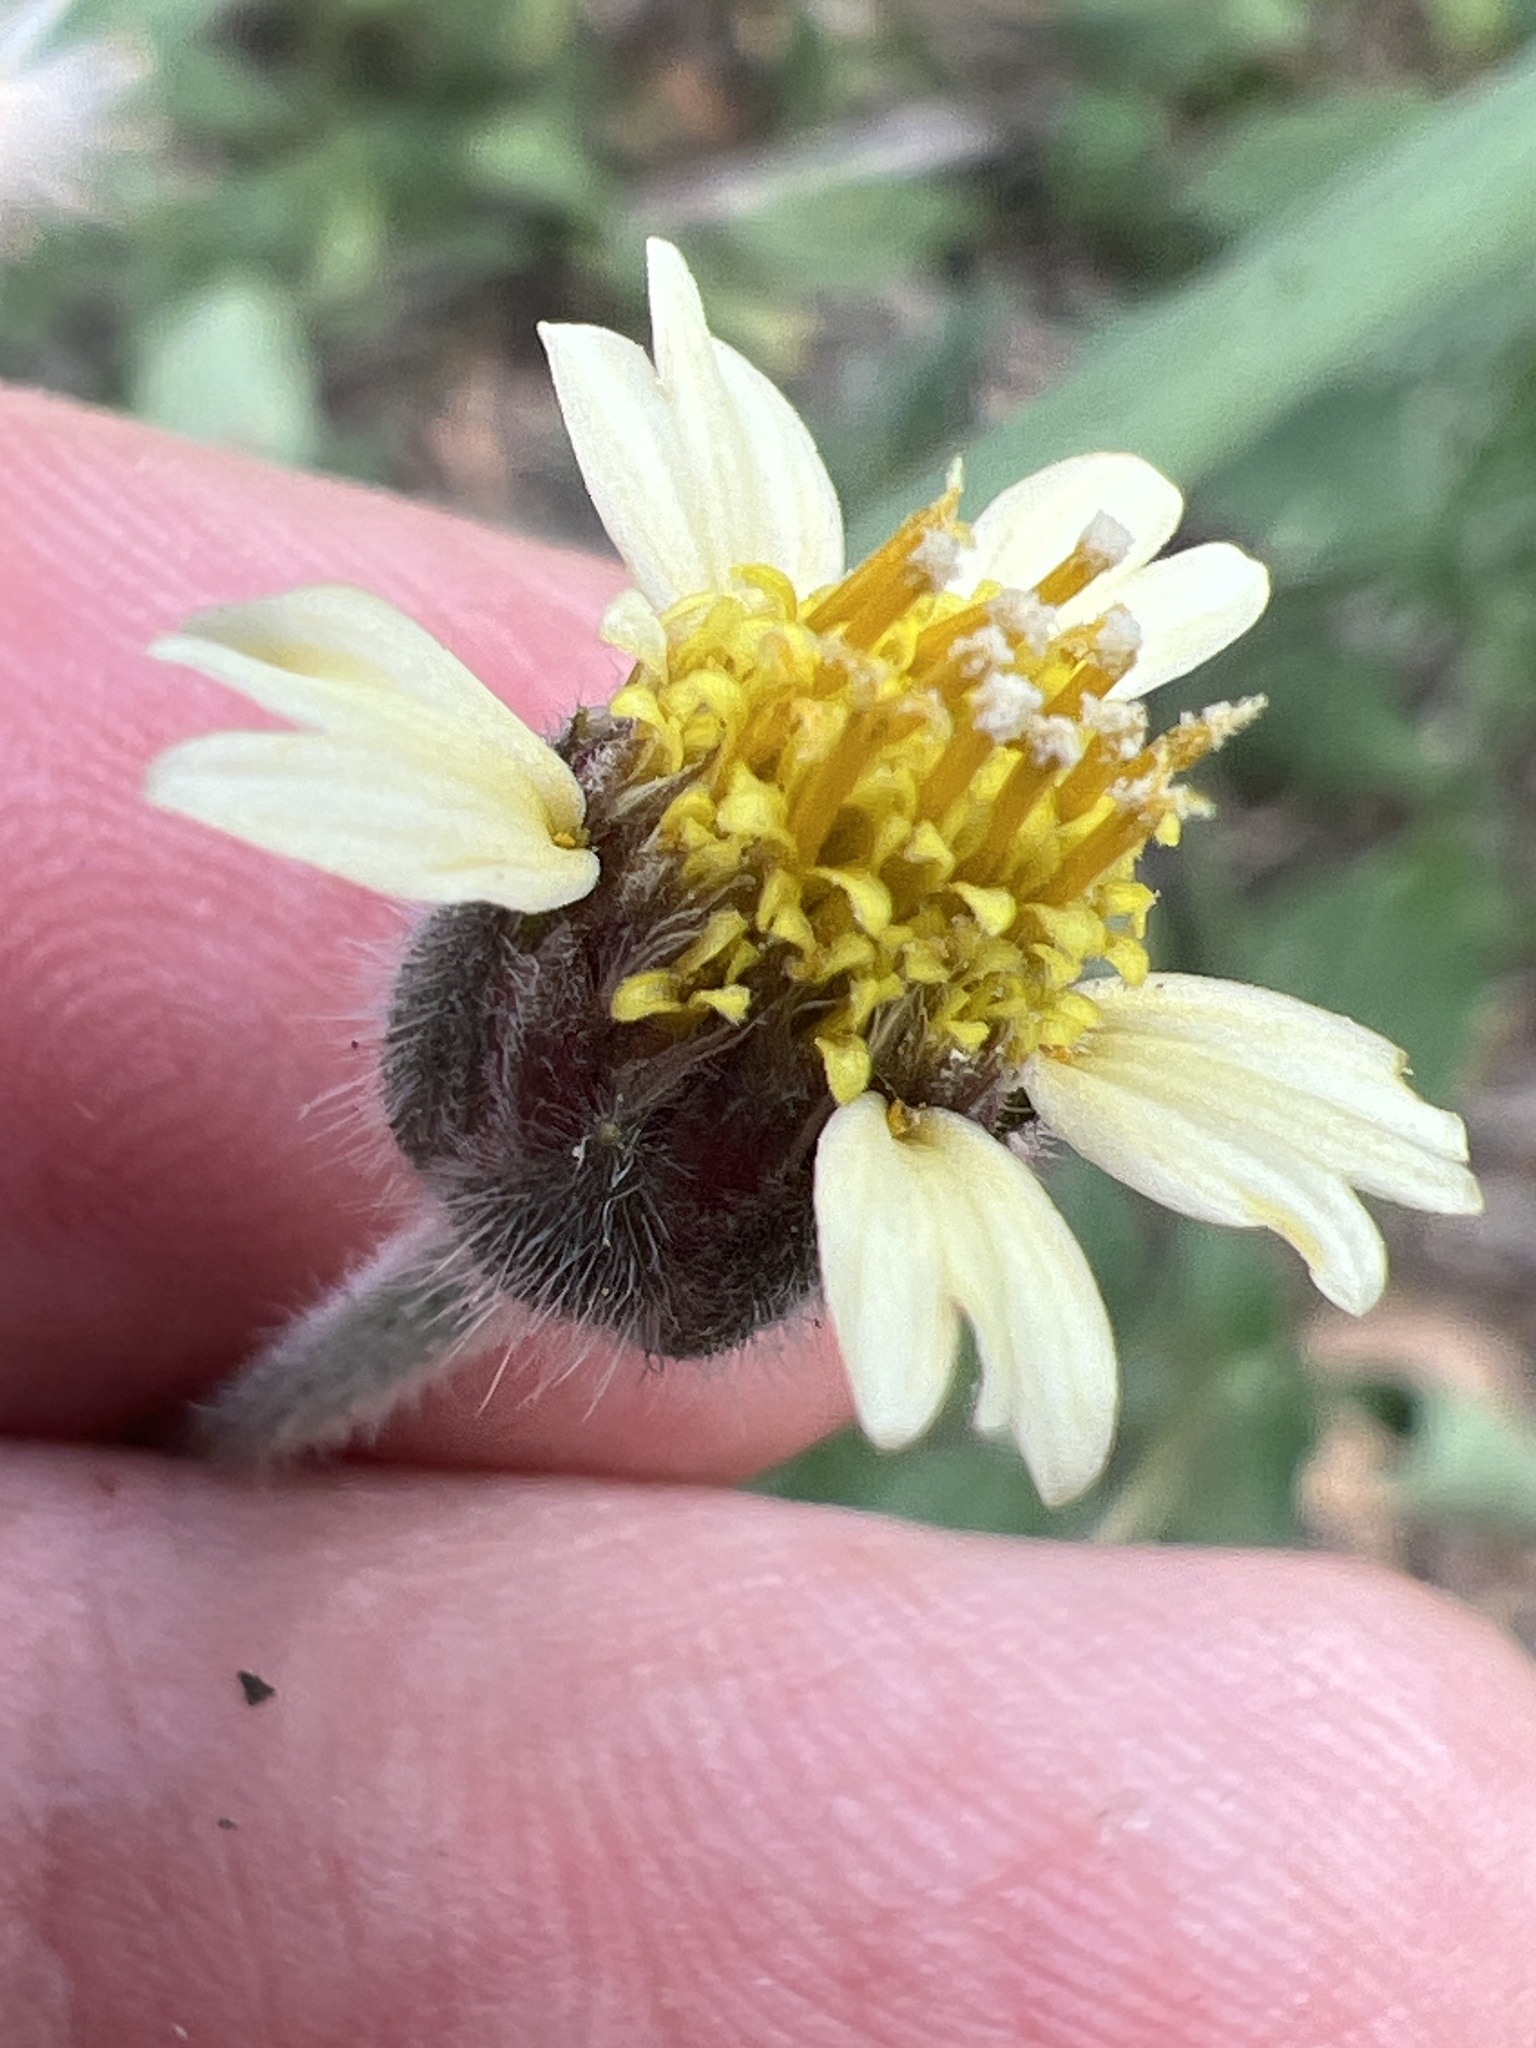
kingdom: Plantae
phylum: Tracheophyta
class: Magnoliopsida
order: Asterales
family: Asteraceae
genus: Tridax
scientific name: Tridax procumbens
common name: Coatbuttons
